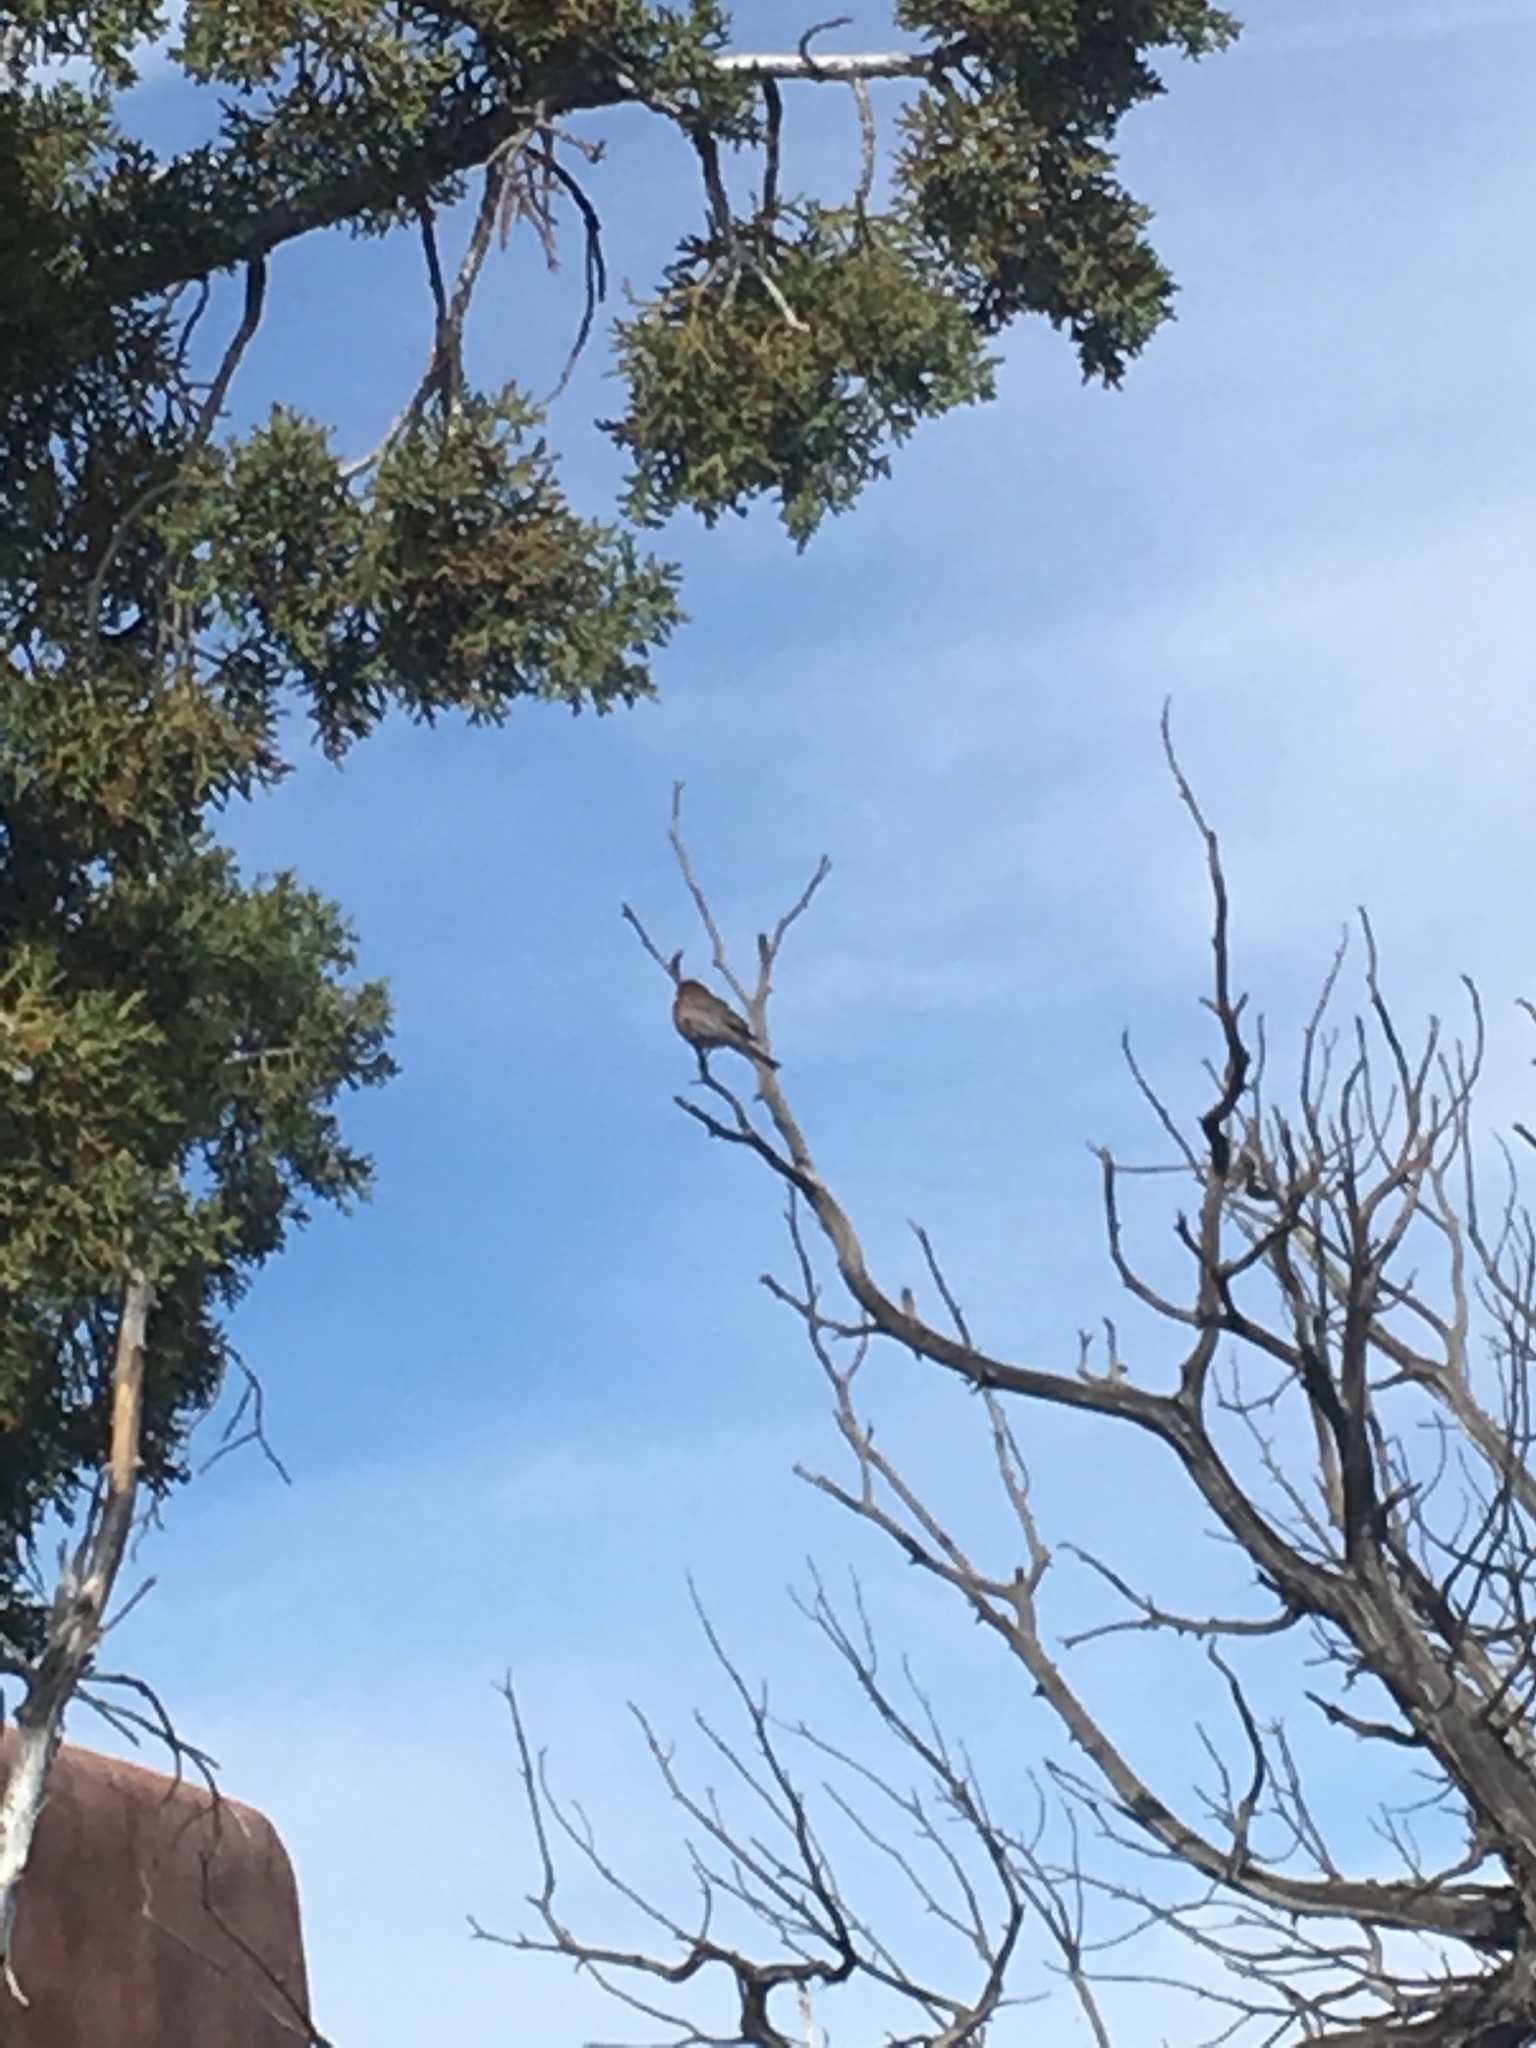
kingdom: Animalia
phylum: Chordata
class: Aves
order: Passeriformes
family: Fringillidae
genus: Haemorhous
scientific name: Haemorhous mexicanus
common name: House finch
